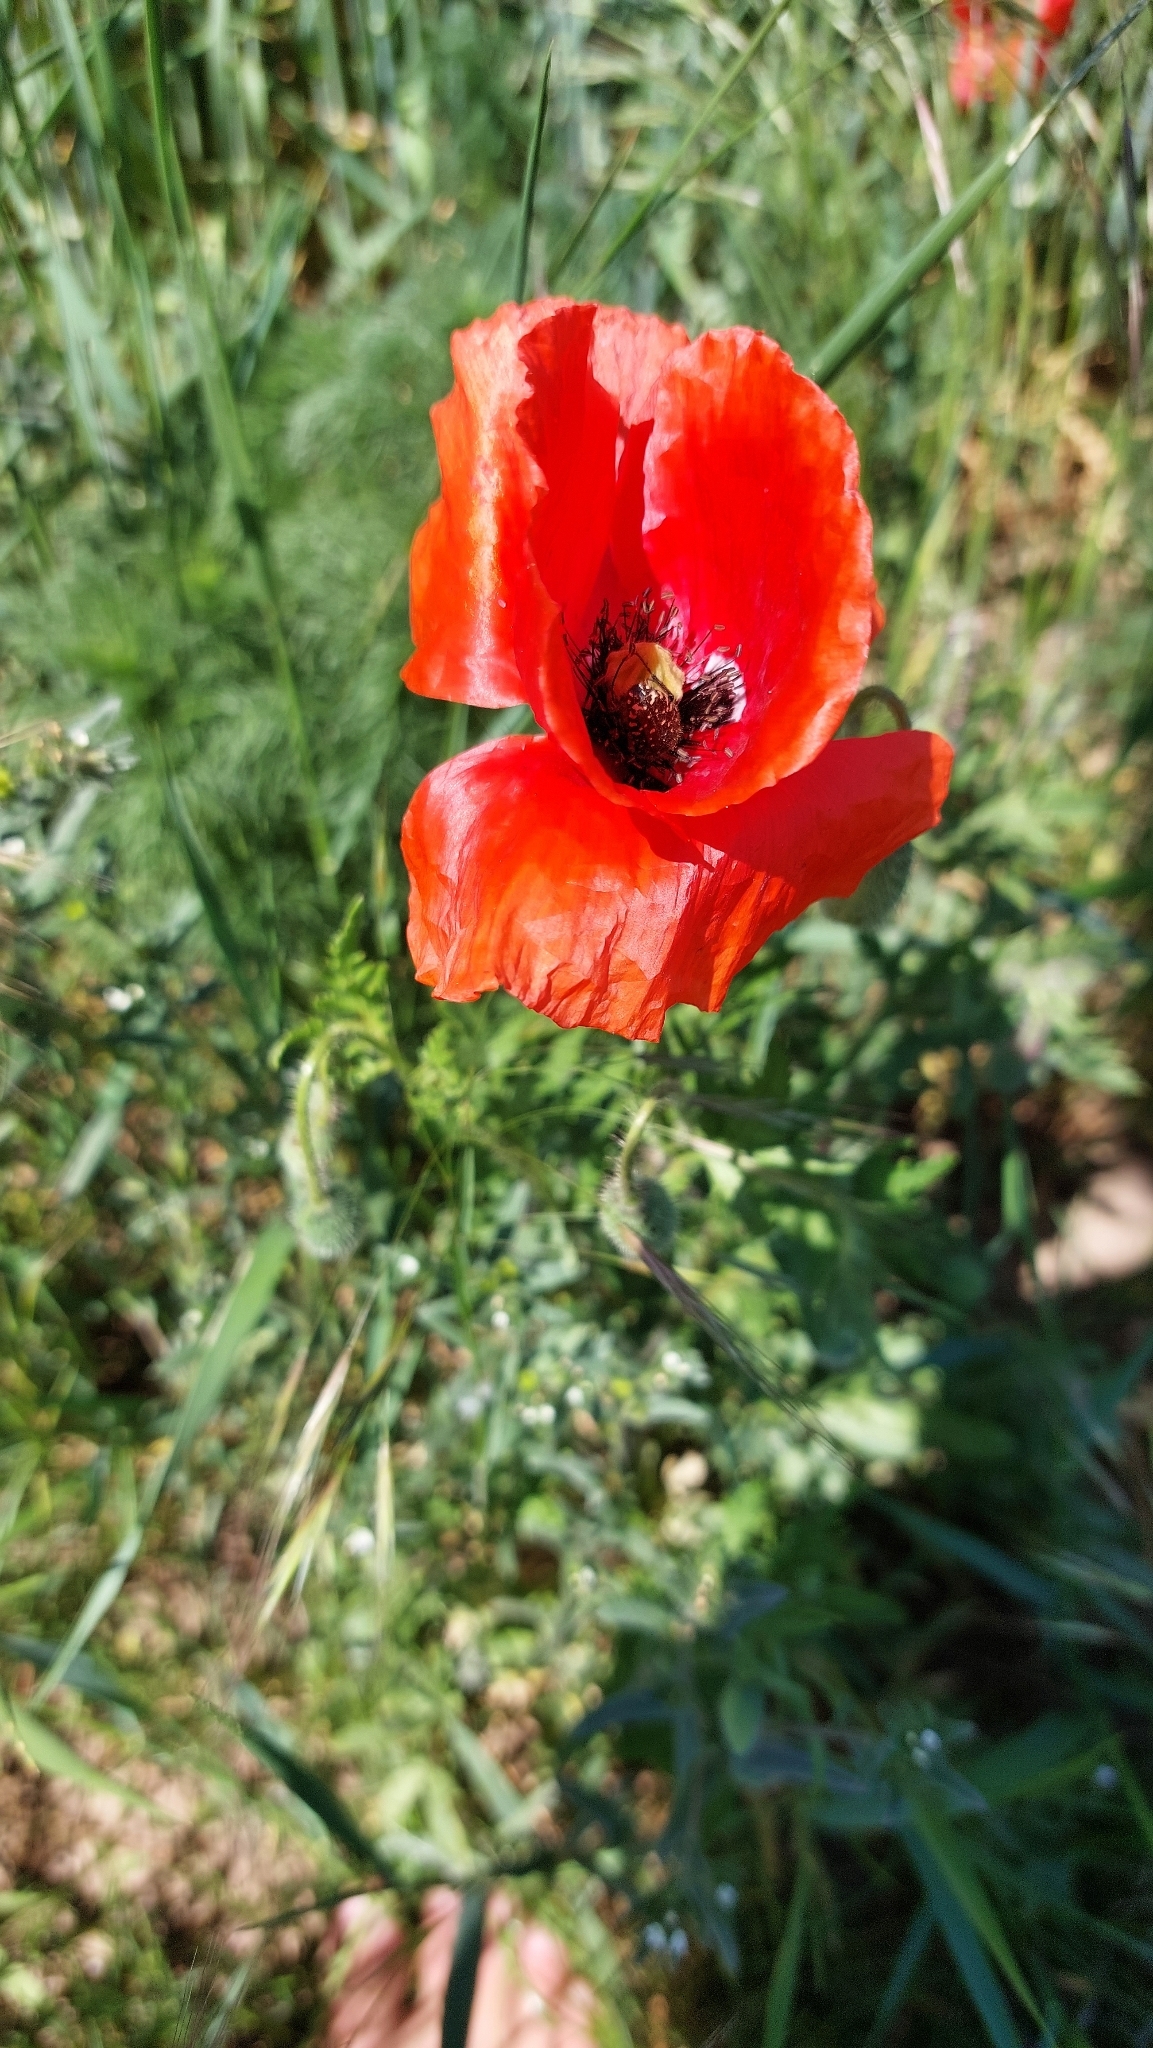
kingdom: Plantae
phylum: Tracheophyta
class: Magnoliopsida
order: Ranunculales
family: Papaveraceae
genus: Papaver
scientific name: Papaver rhoeas
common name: Corn poppy
